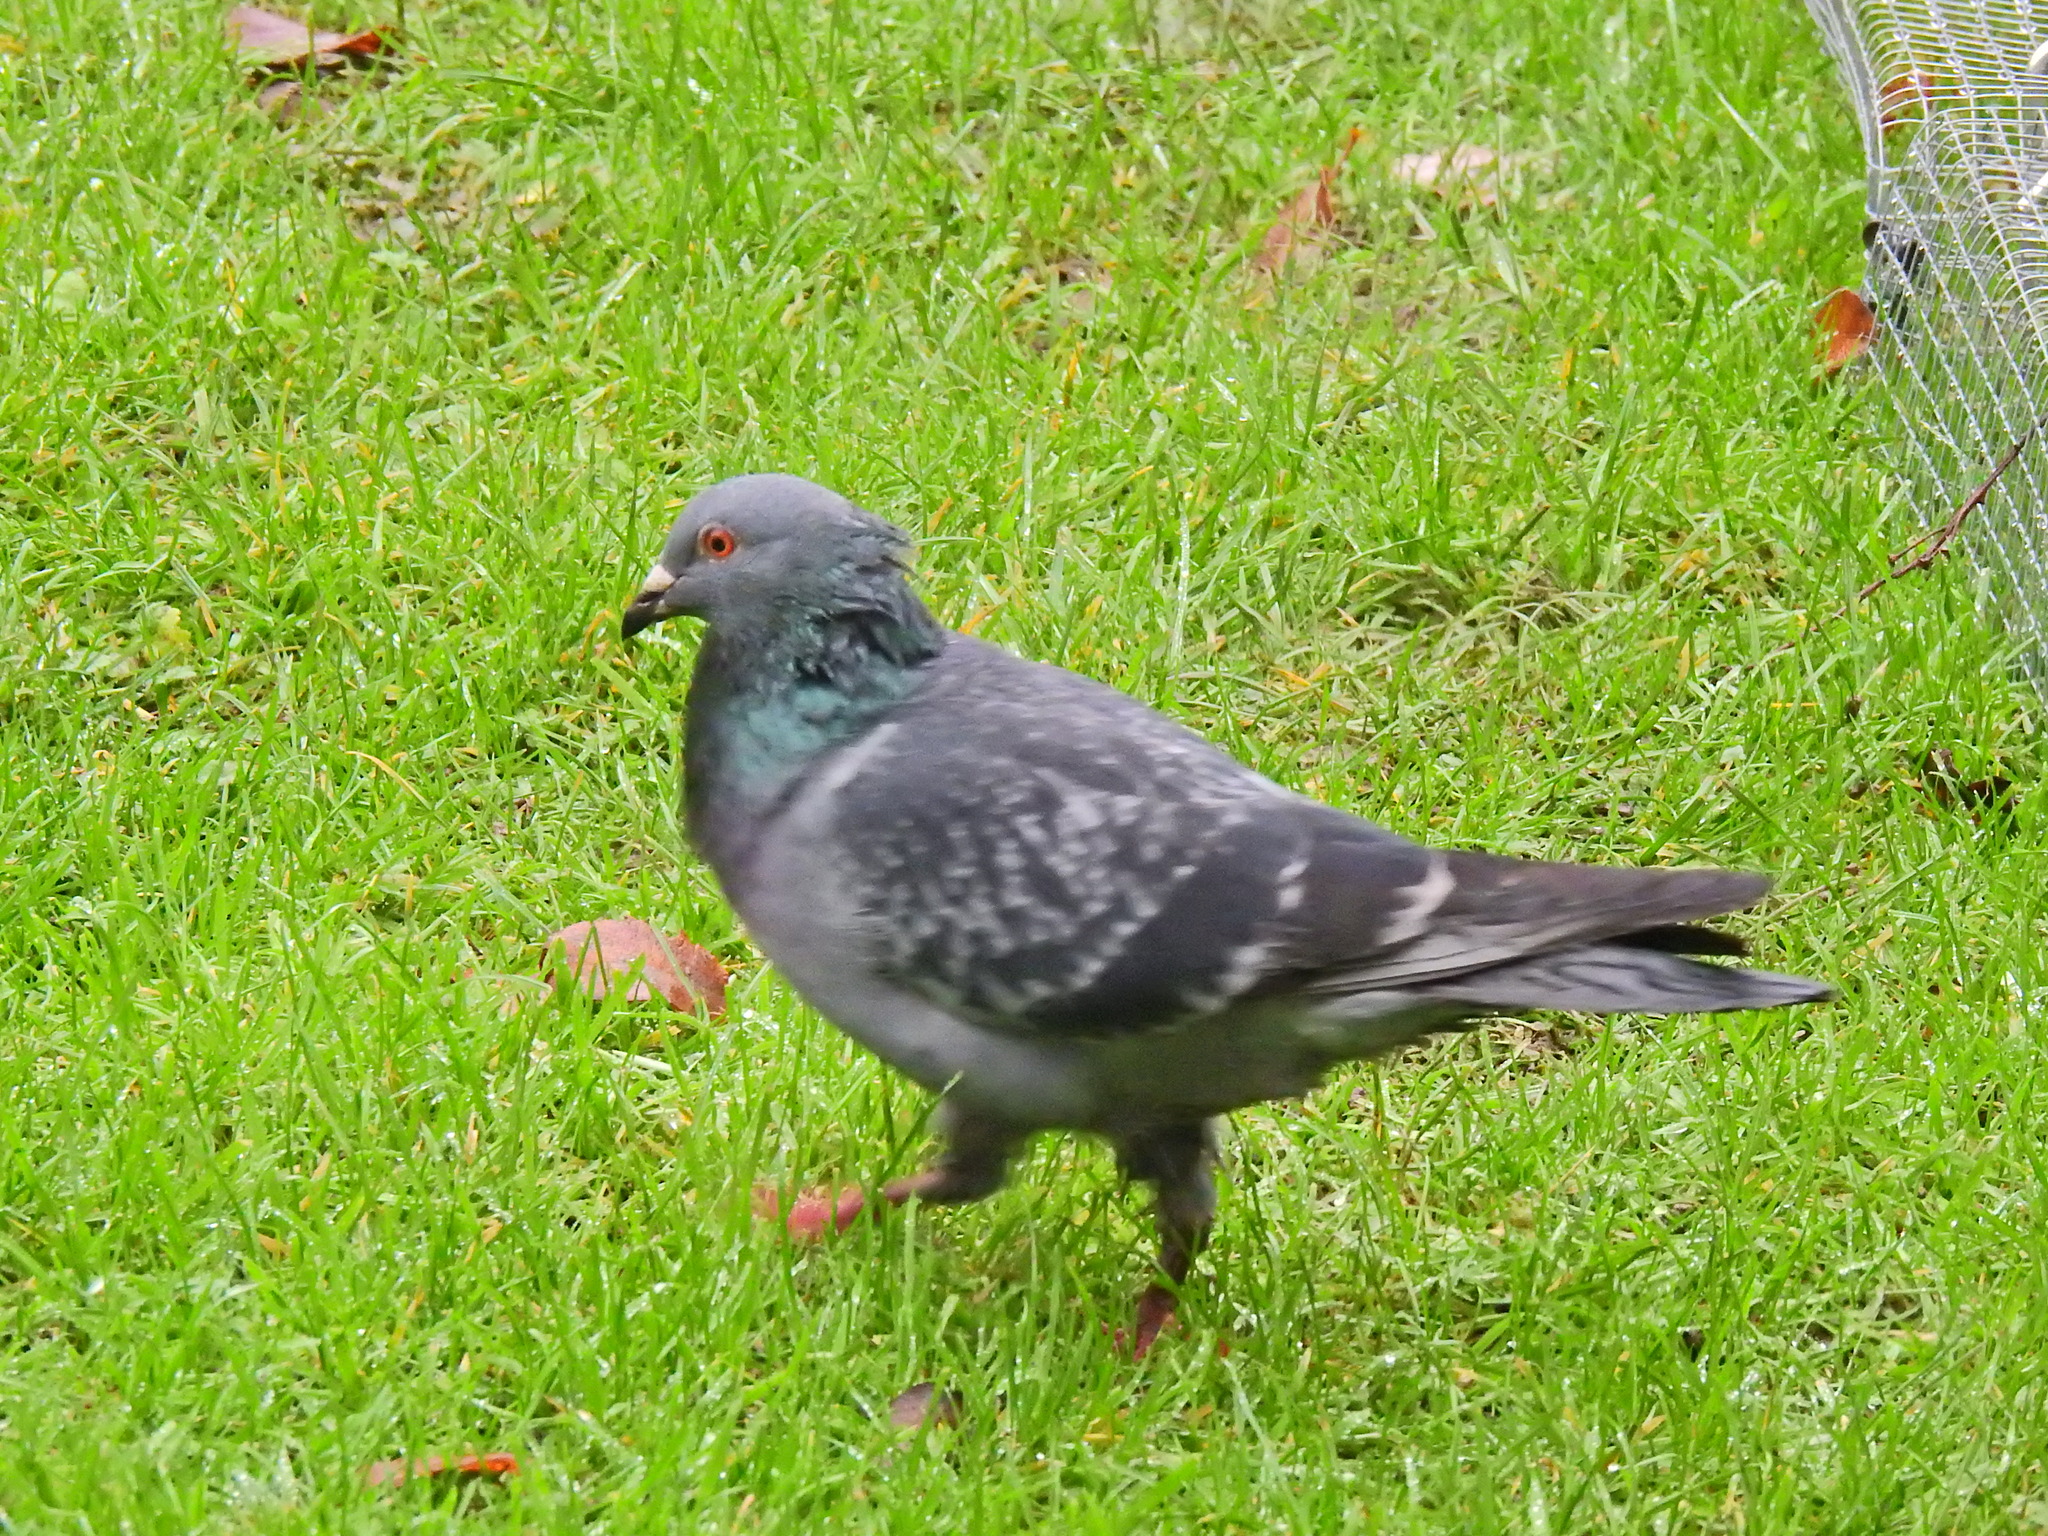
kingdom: Animalia
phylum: Chordata
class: Aves
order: Columbiformes
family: Columbidae
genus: Columba
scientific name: Columba livia
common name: Rock pigeon
